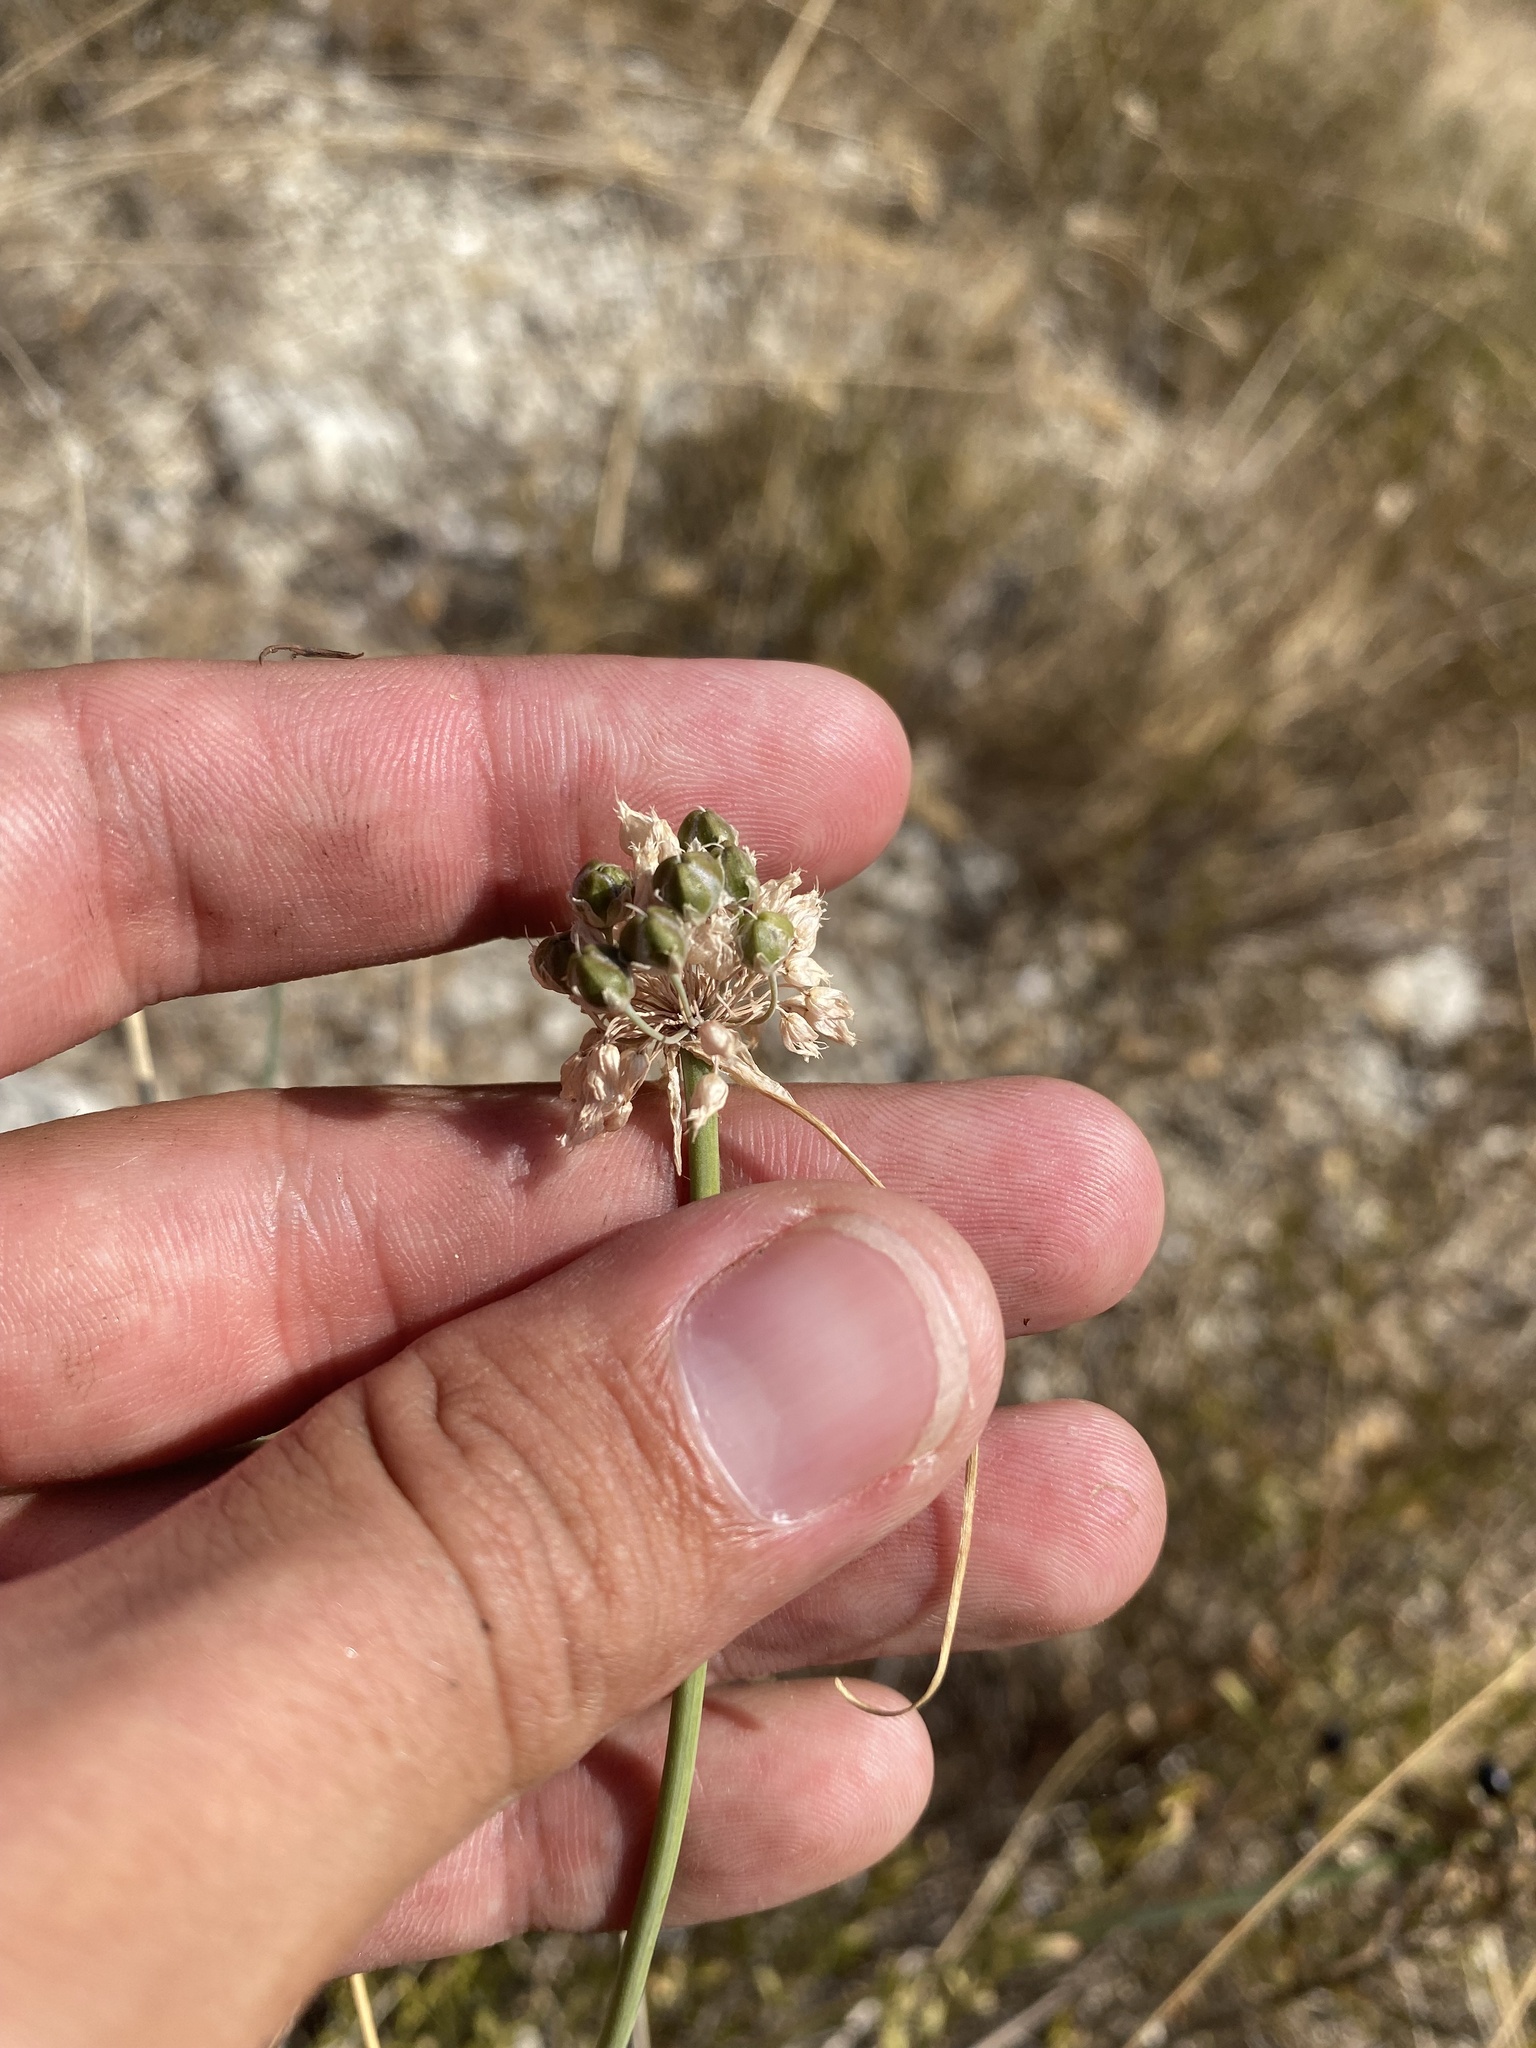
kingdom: Plantae
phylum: Tracheophyta
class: Liliopsida
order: Asparagales
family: Amaryllidaceae
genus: Allium
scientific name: Allium psebaicum
